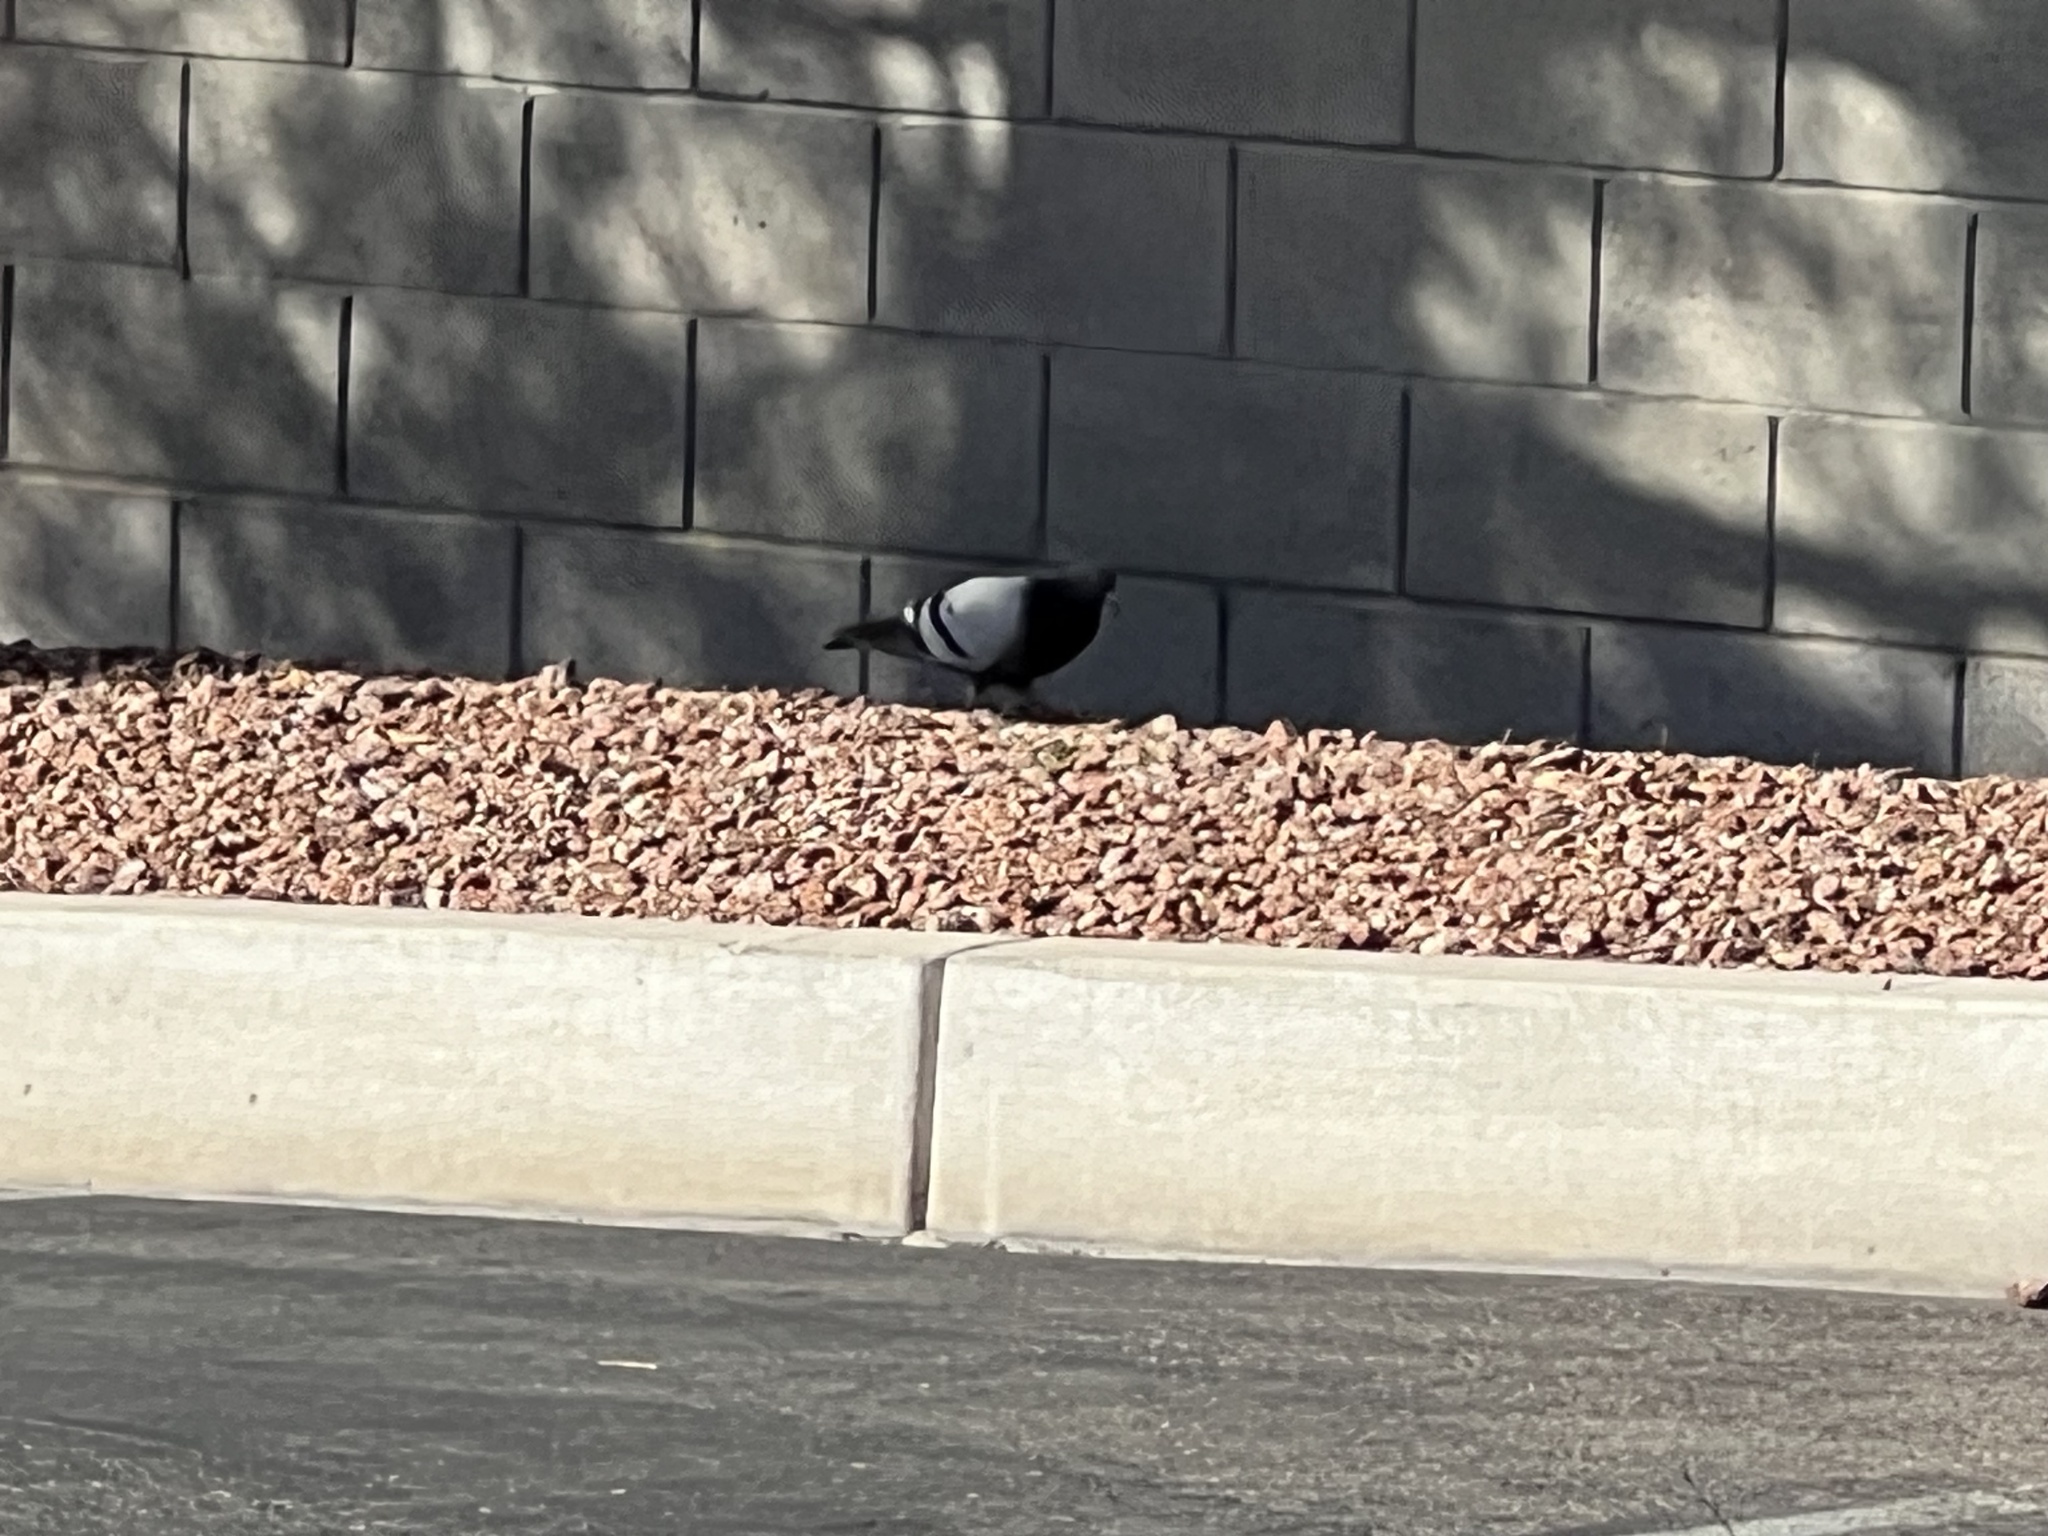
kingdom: Animalia
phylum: Chordata
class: Aves
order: Columbiformes
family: Columbidae
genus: Columba
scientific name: Columba livia
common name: Rock pigeon
